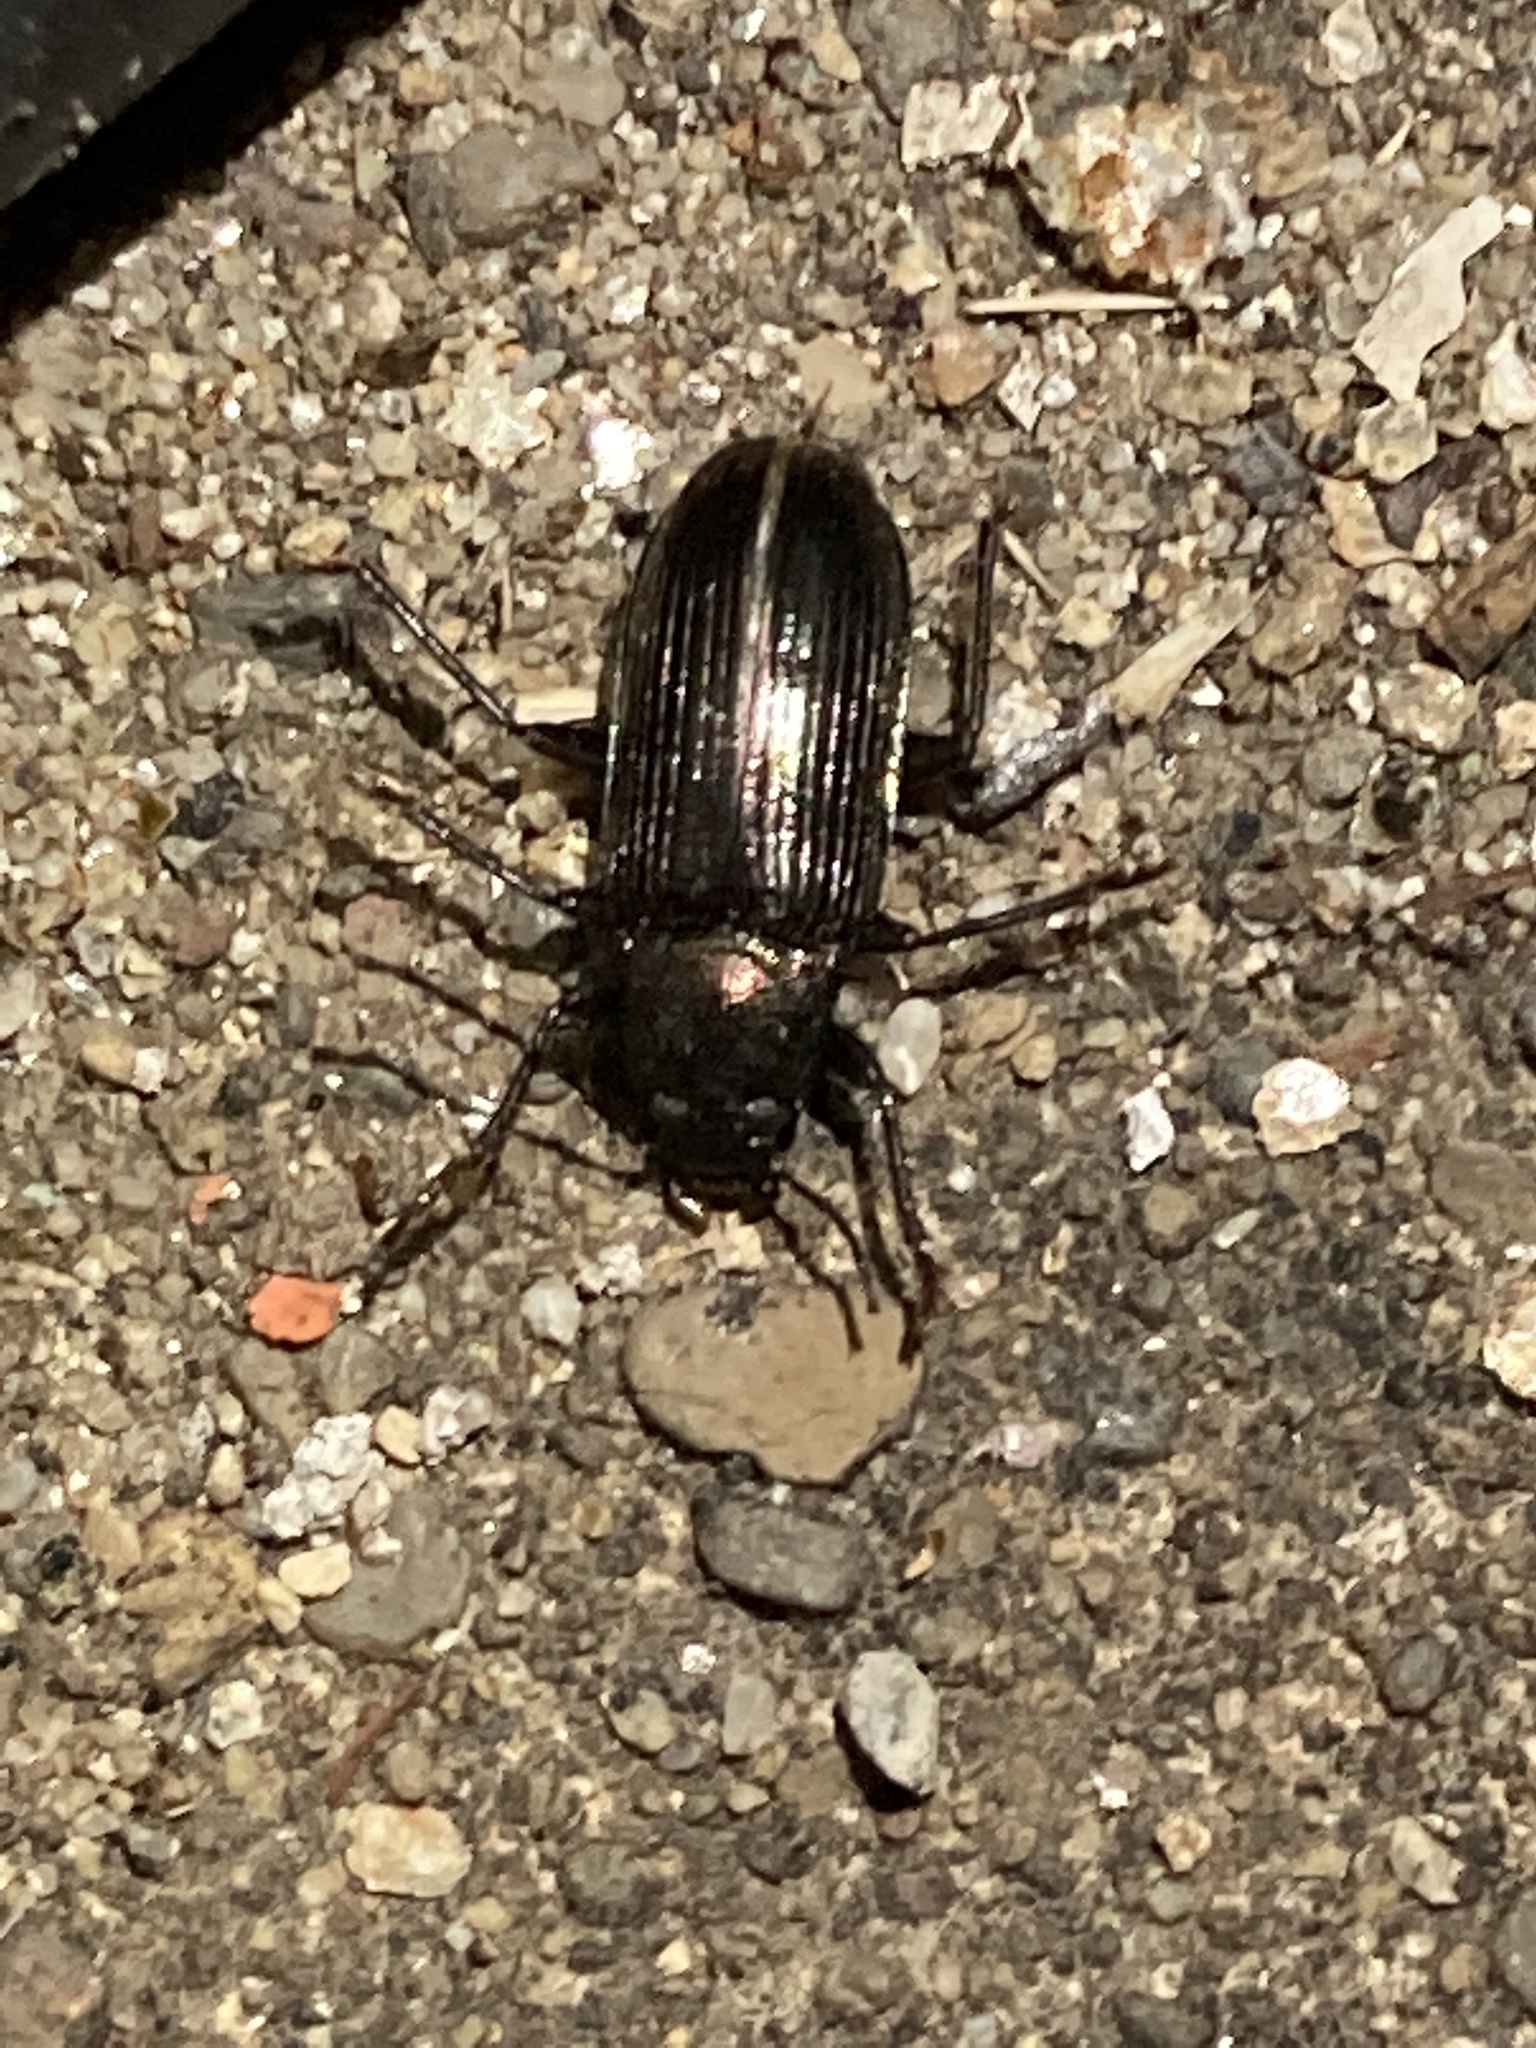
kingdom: Animalia
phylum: Arthropoda
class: Insecta
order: Coleoptera
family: Tenebrionidae
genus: Tarpela
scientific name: Tarpela undulata
